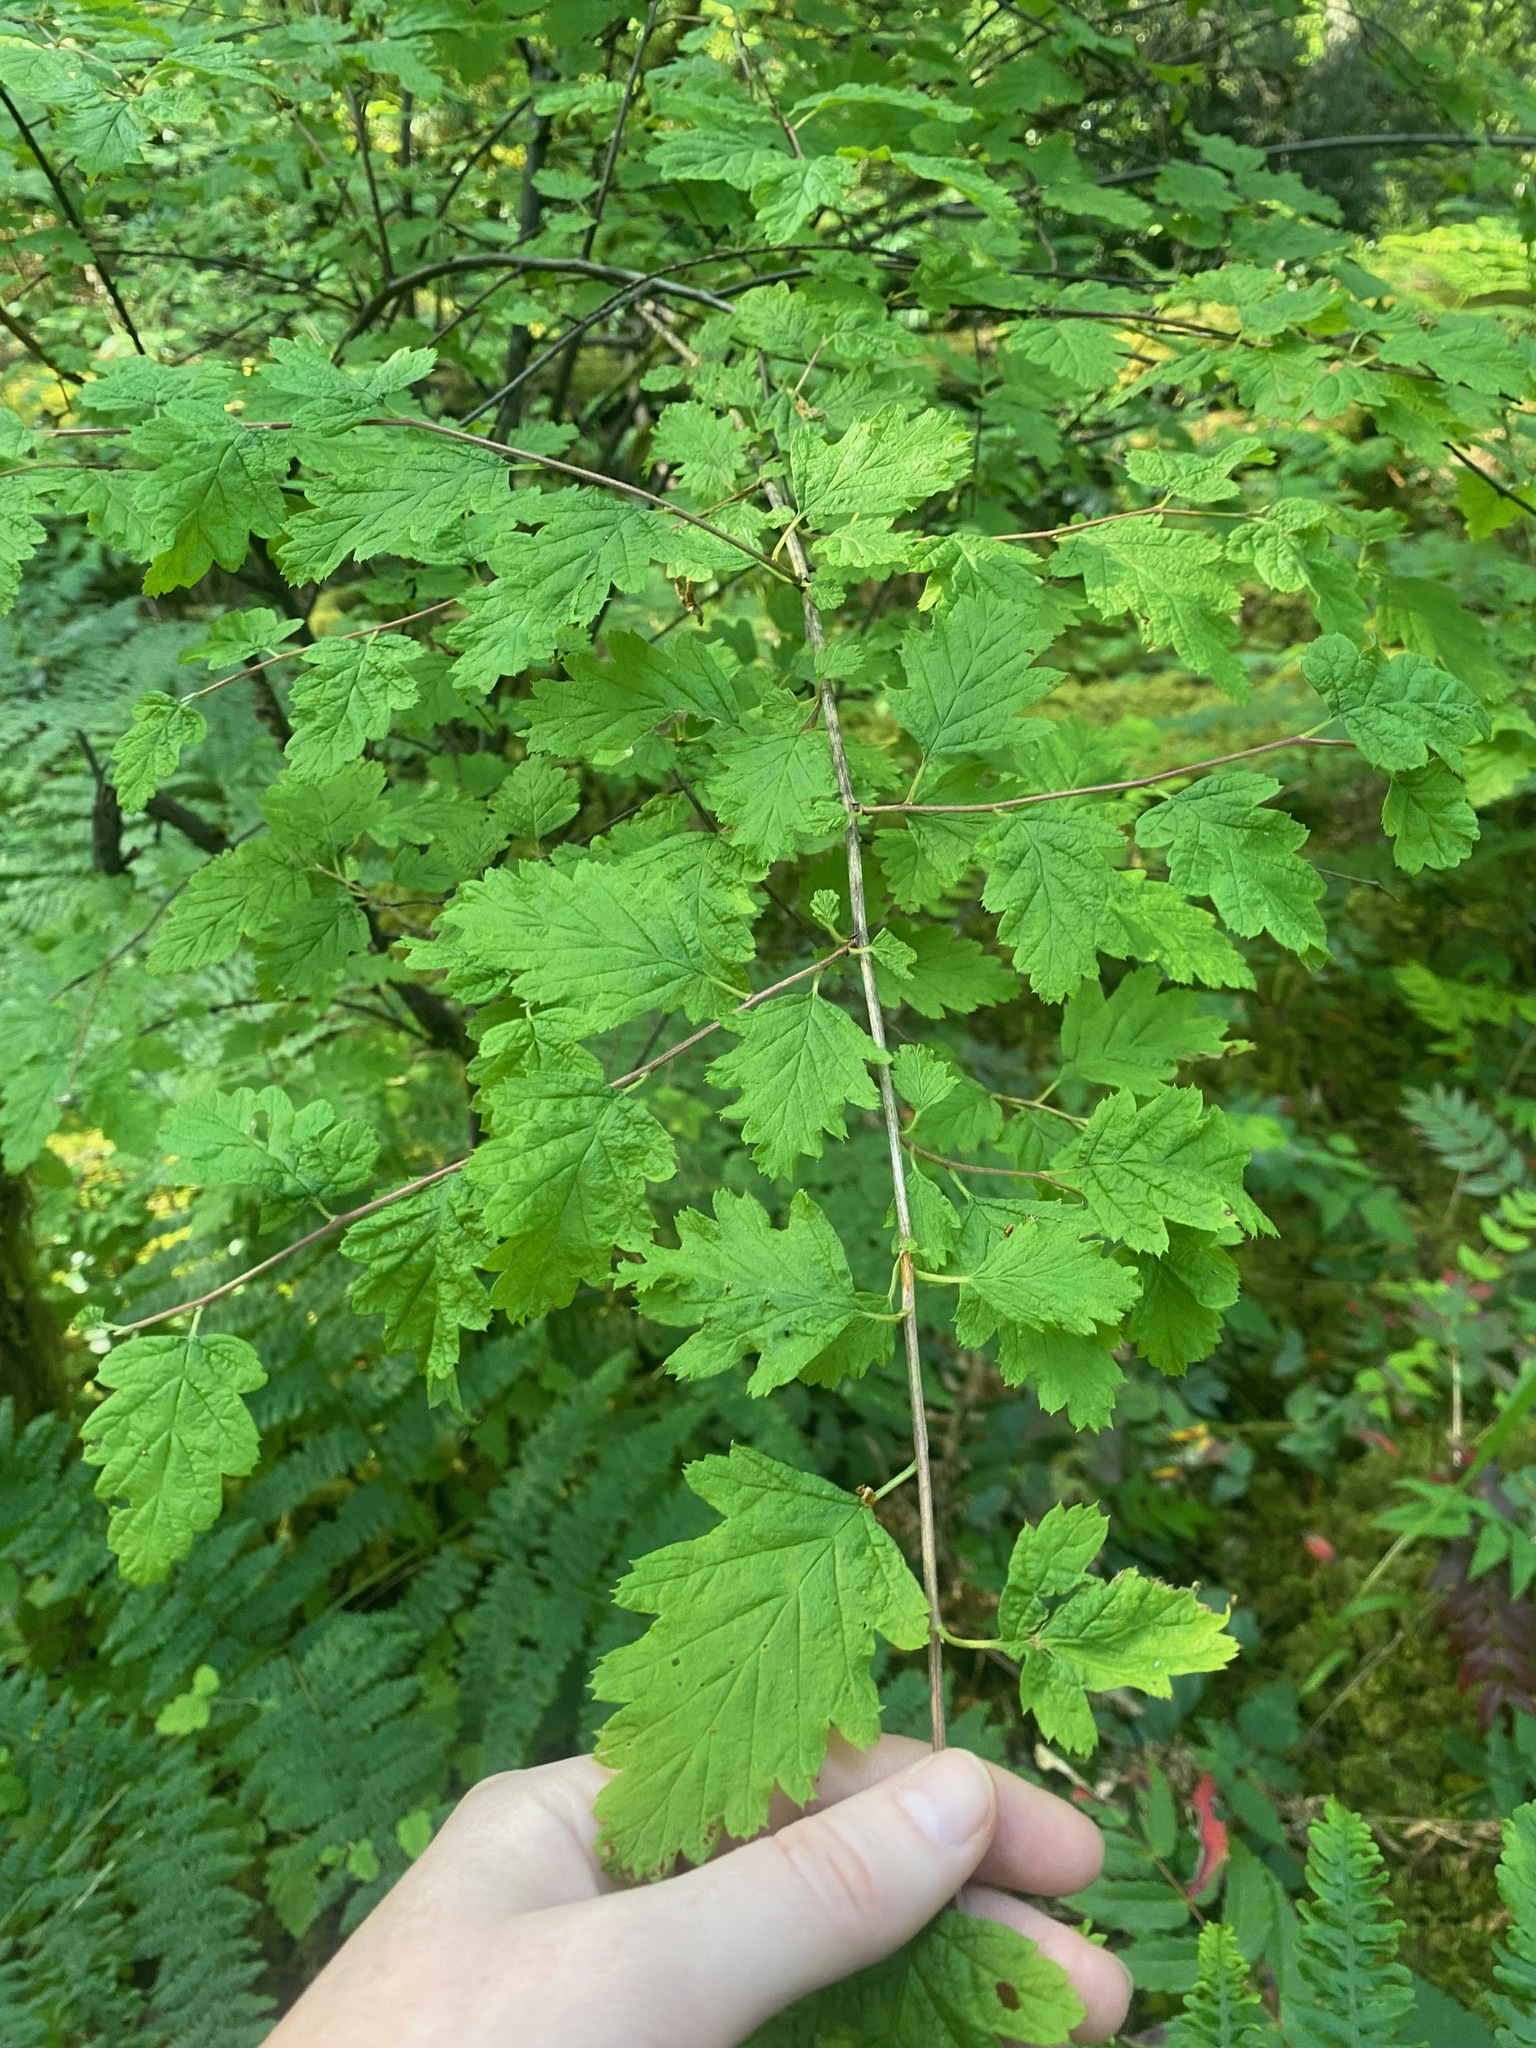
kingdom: Plantae
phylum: Tracheophyta
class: Magnoliopsida
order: Rosales
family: Rosaceae
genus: Holodiscus
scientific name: Holodiscus discolor
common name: Oceanspray
